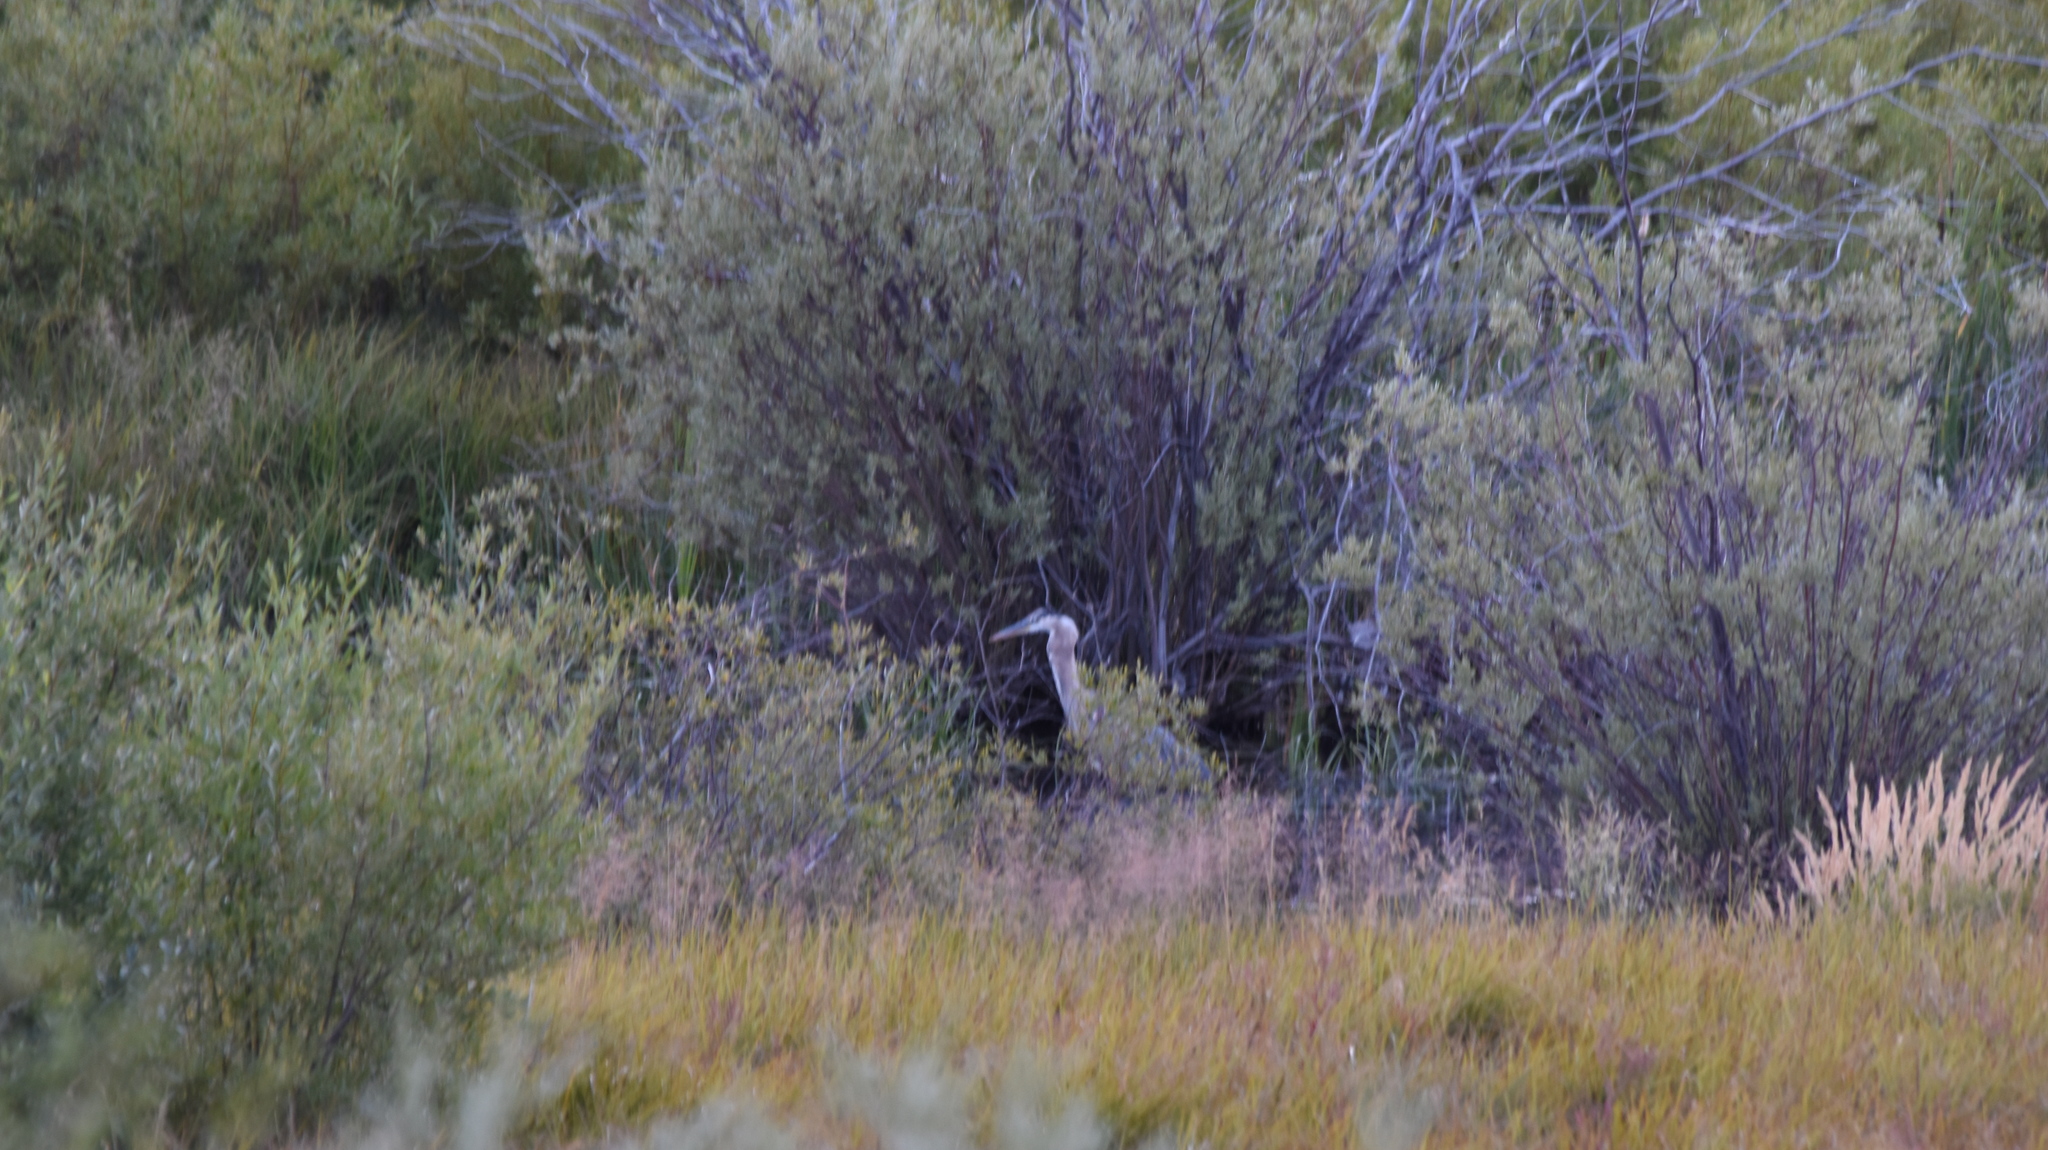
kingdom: Animalia
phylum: Chordata
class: Aves
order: Pelecaniformes
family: Ardeidae
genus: Ardea
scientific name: Ardea herodias
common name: Great blue heron
